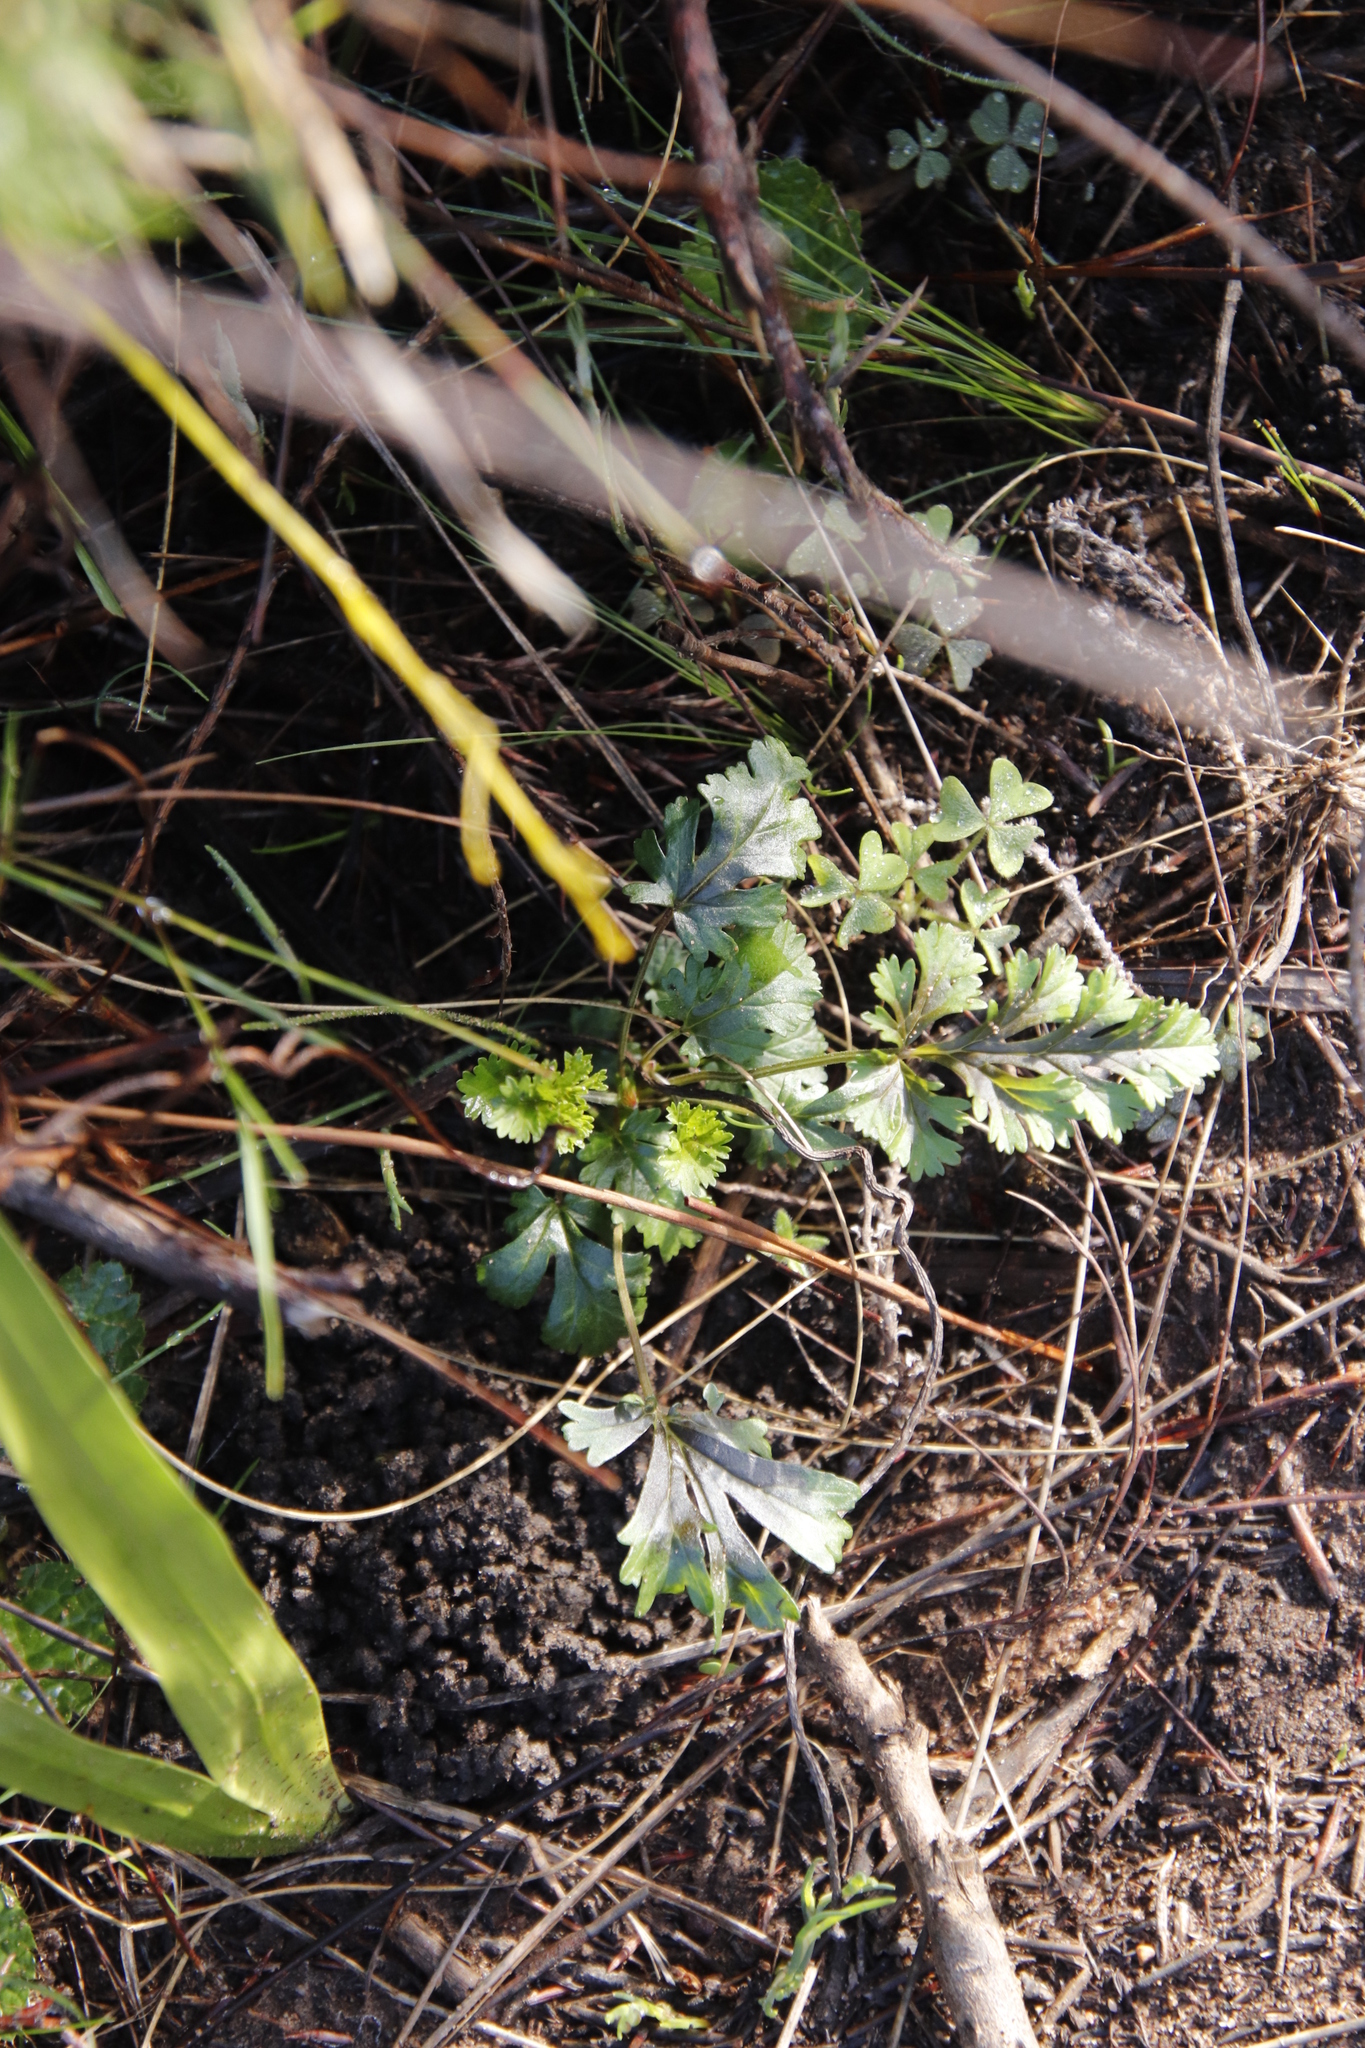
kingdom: Plantae
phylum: Tracheophyta
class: Magnoliopsida
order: Apiales
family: Apiaceae
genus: Glia
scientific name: Glia prolifera
